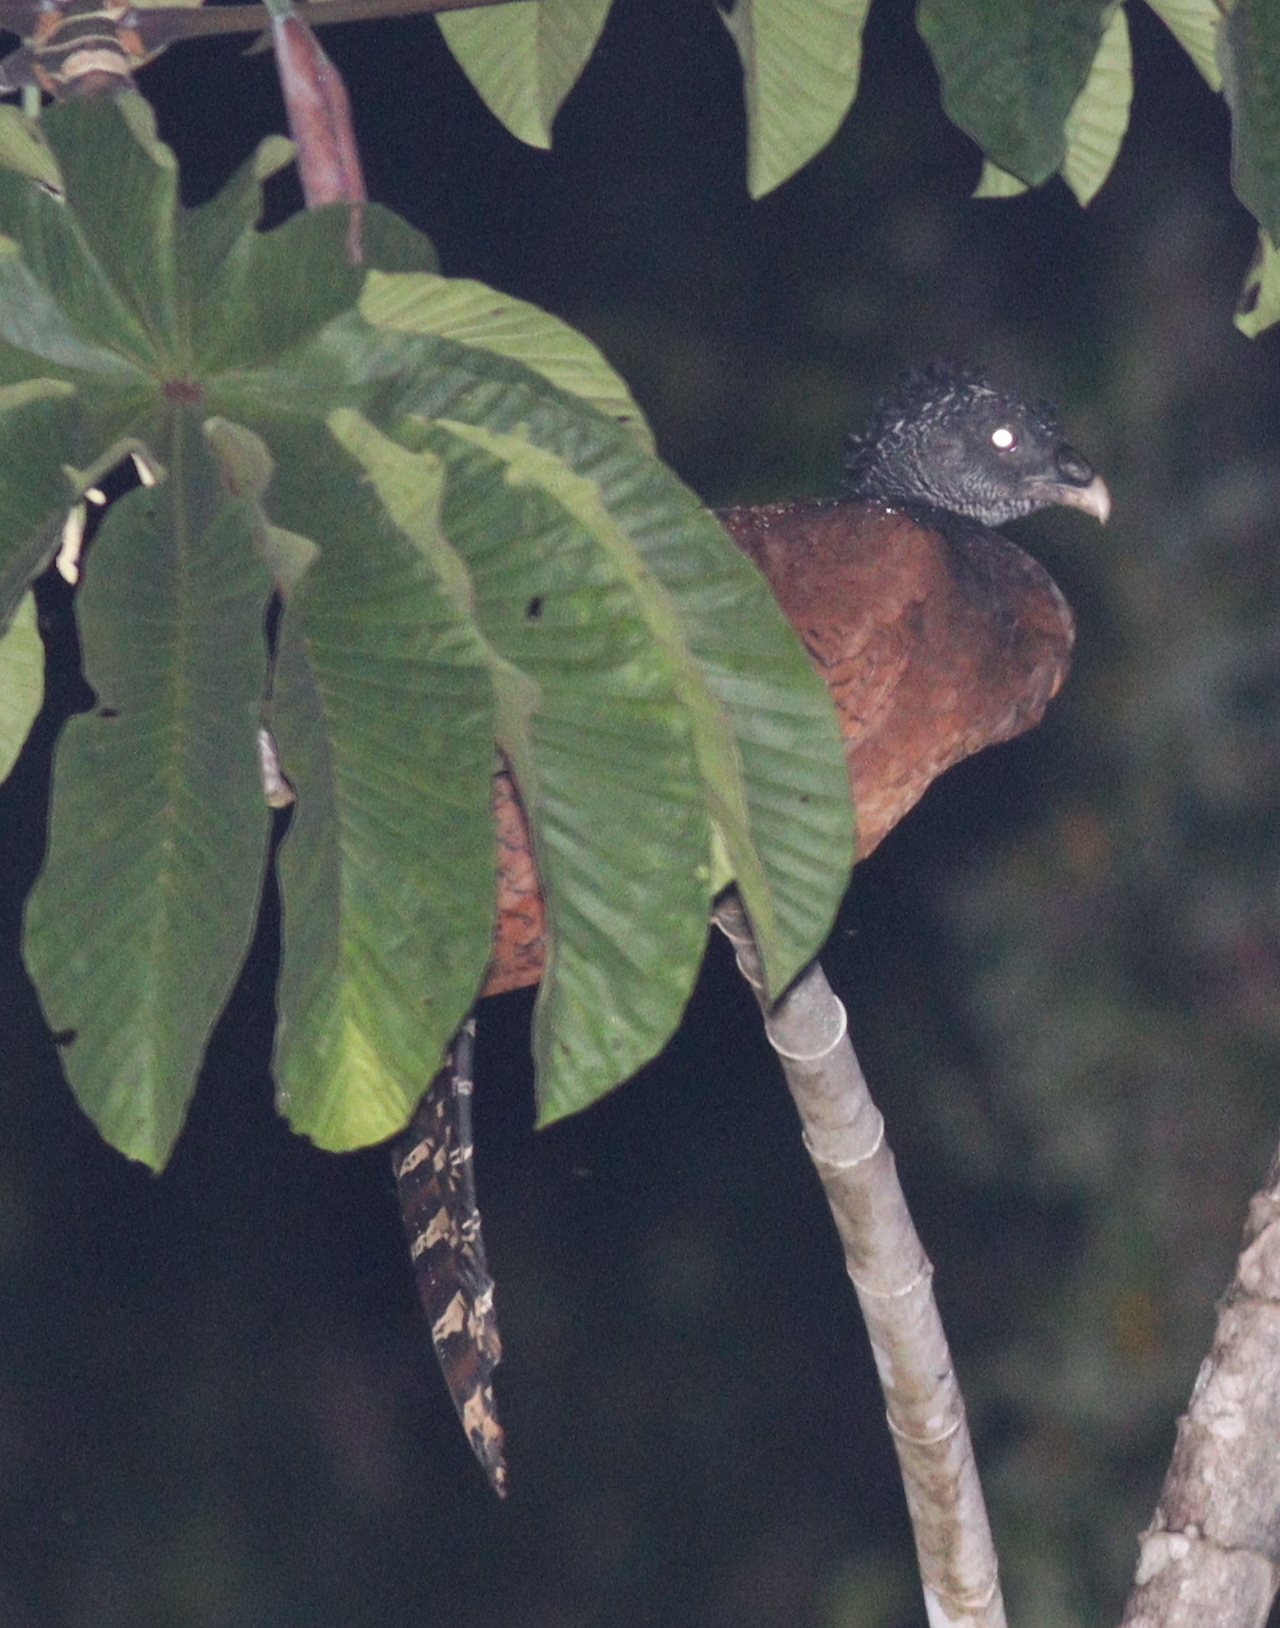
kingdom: Animalia
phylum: Chordata
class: Aves
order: Galliformes
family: Cracidae
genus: Crax
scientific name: Crax rubra
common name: Great curassow
